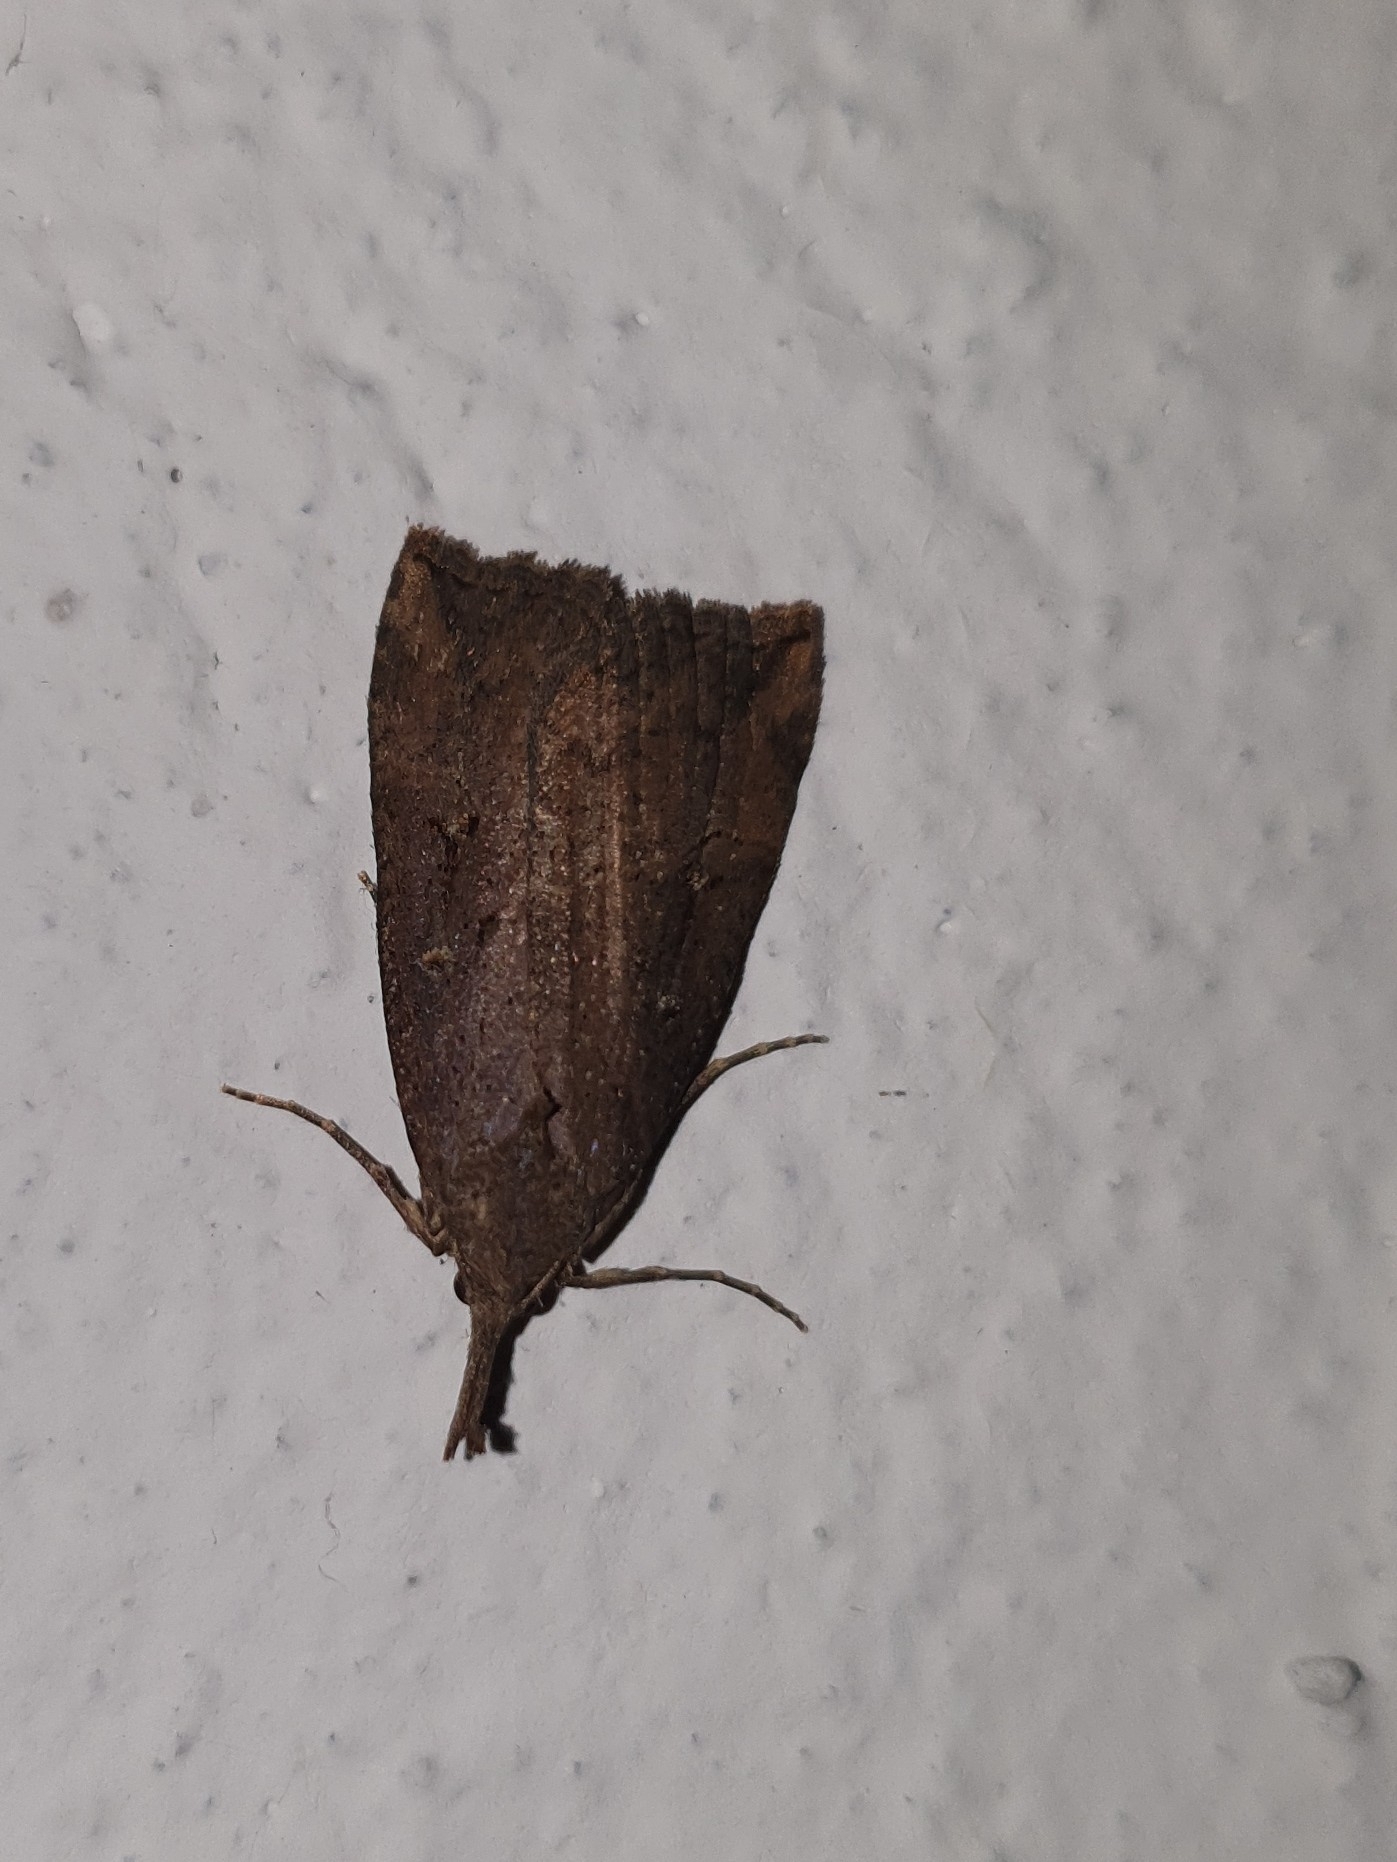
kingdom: Animalia
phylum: Arthropoda
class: Insecta
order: Lepidoptera
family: Erebidae
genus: Hypena
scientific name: Hypena rostralis
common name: Buttoned snout
